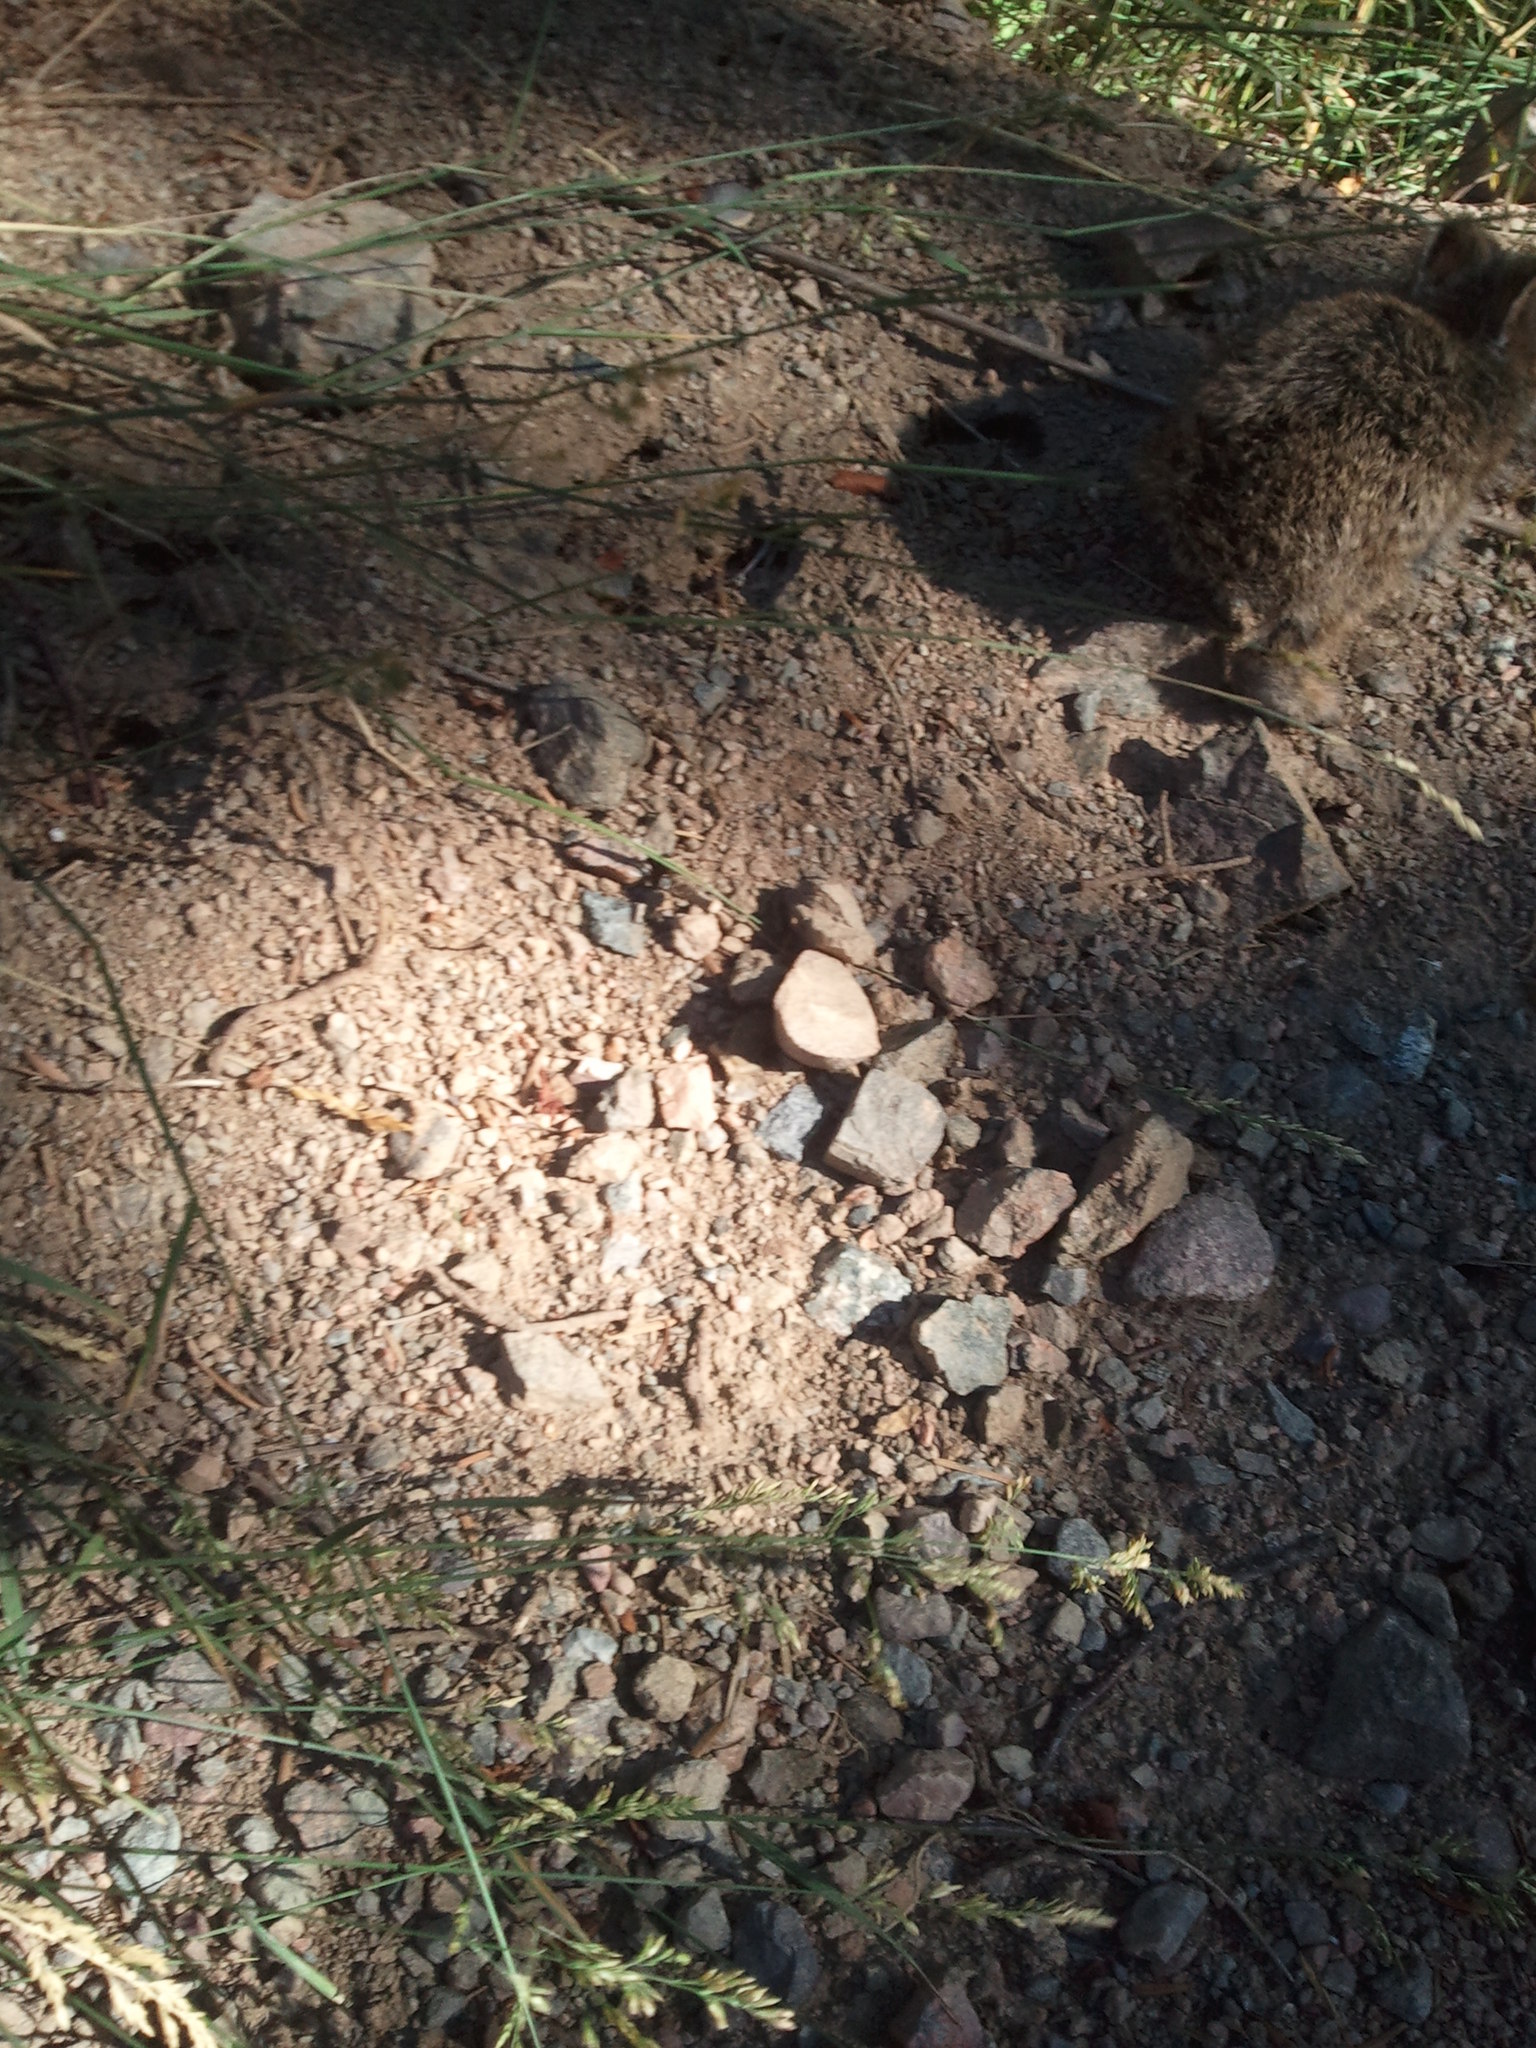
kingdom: Animalia
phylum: Chordata
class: Mammalia
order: Lagomorpha
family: Leporidae
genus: Lepus
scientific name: Lepus americanus
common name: Snowshoe hare
